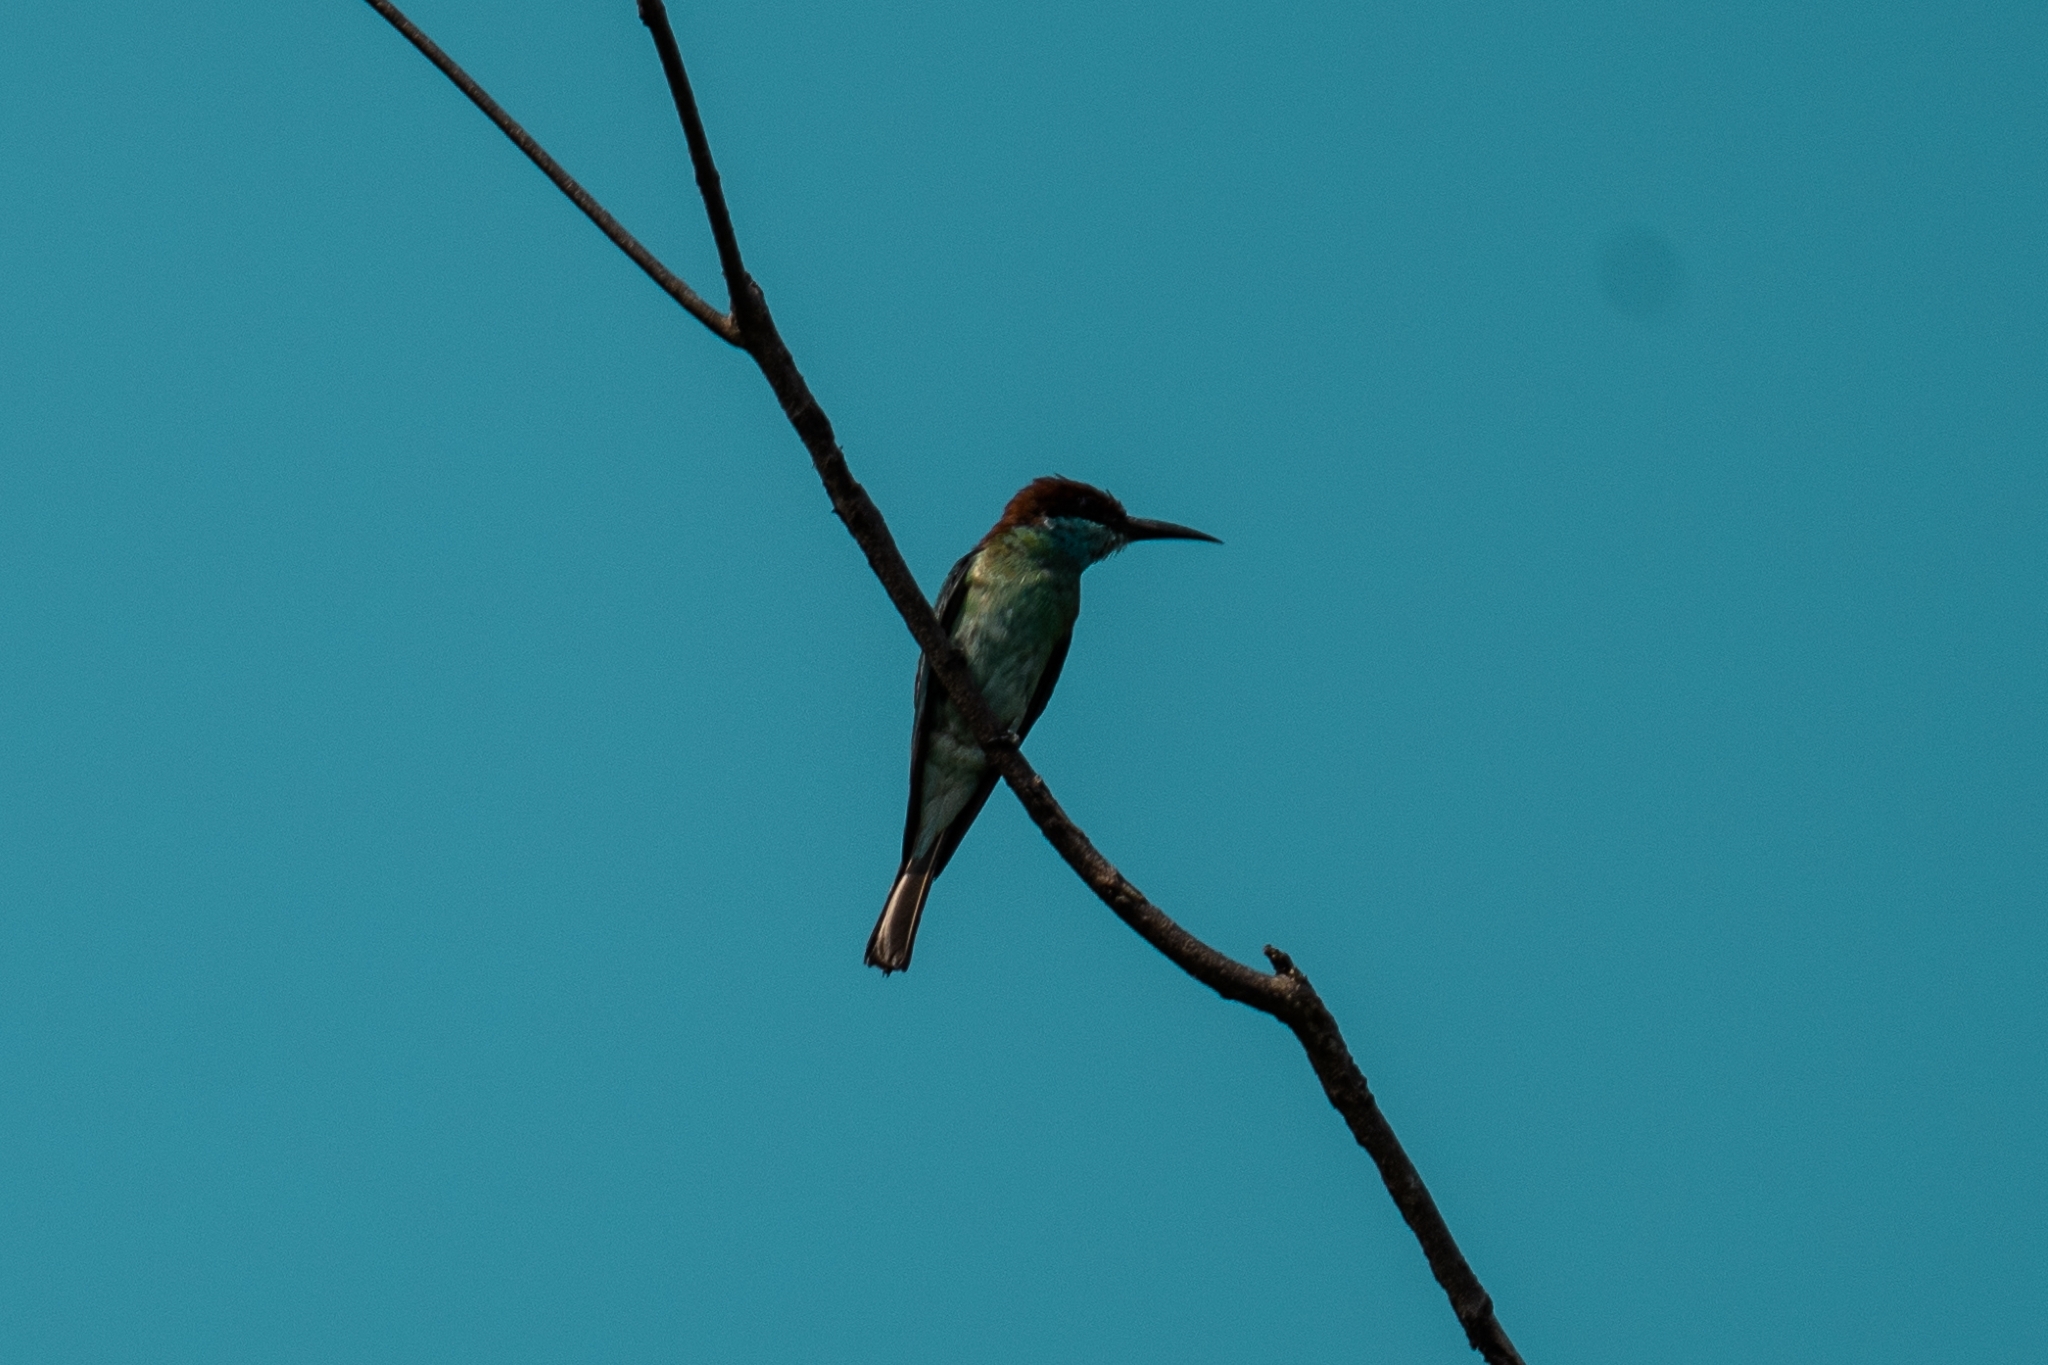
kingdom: Animalia
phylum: Chordata
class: Aves
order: Coraciiformes
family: Meropidae
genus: Merops
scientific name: Merops viridis
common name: Blue-throated bee-eater
